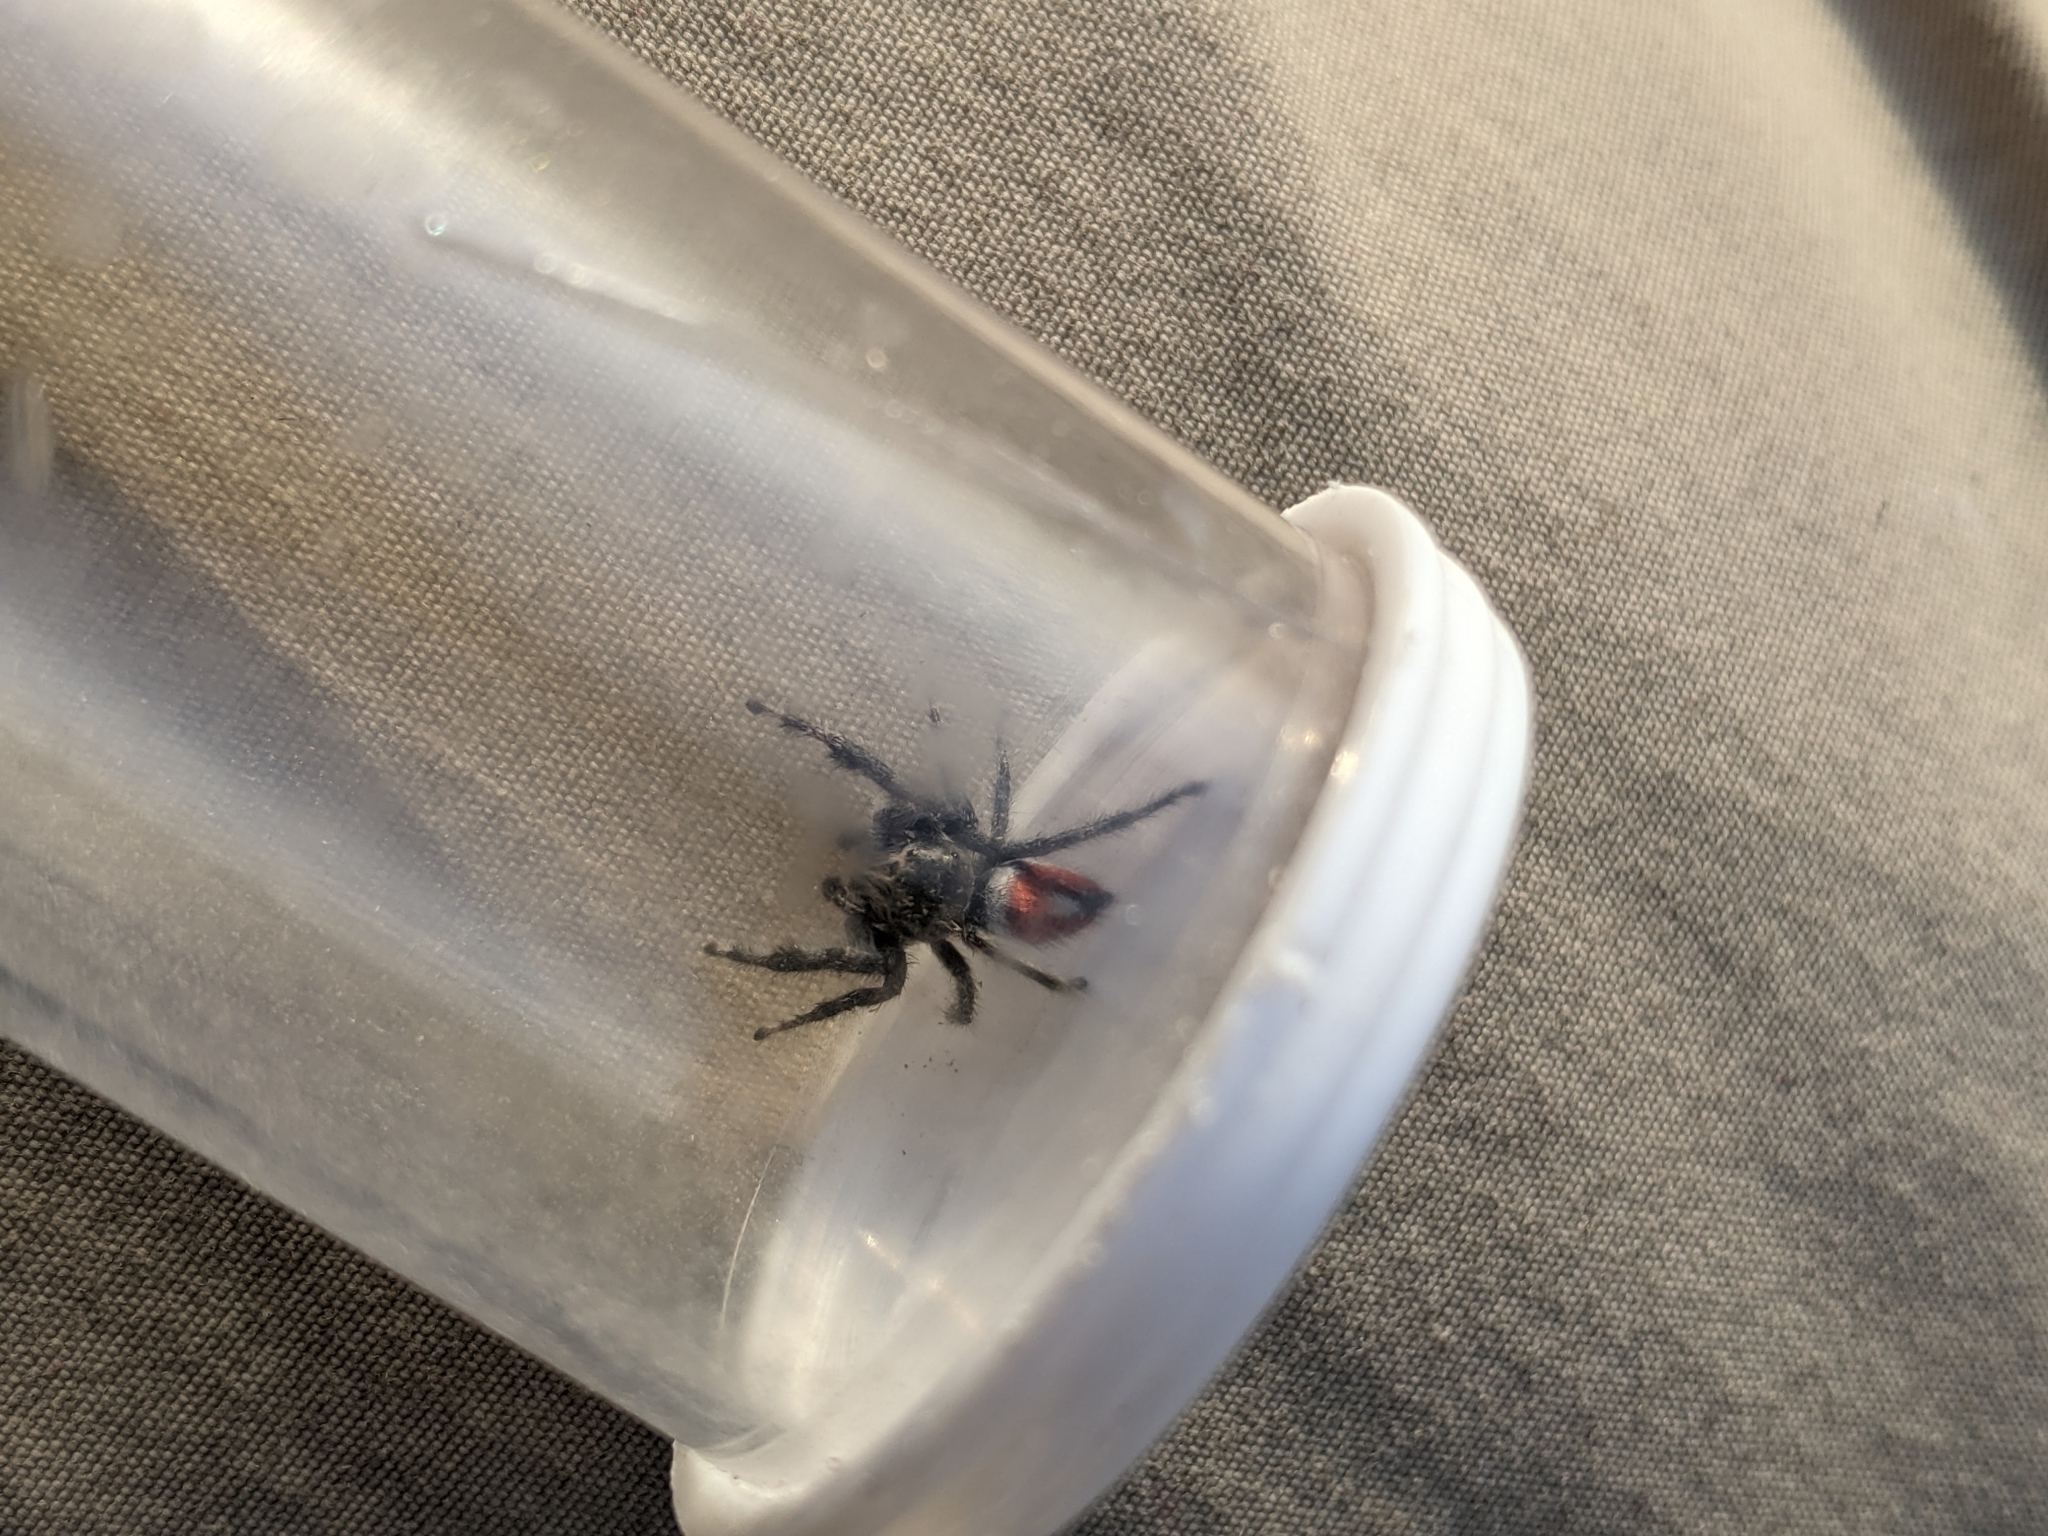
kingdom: Animalia
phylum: Arthropoda
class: Arachnida
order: Araneae
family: Salticidae
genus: Phidippus
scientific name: Phidippus vexans
